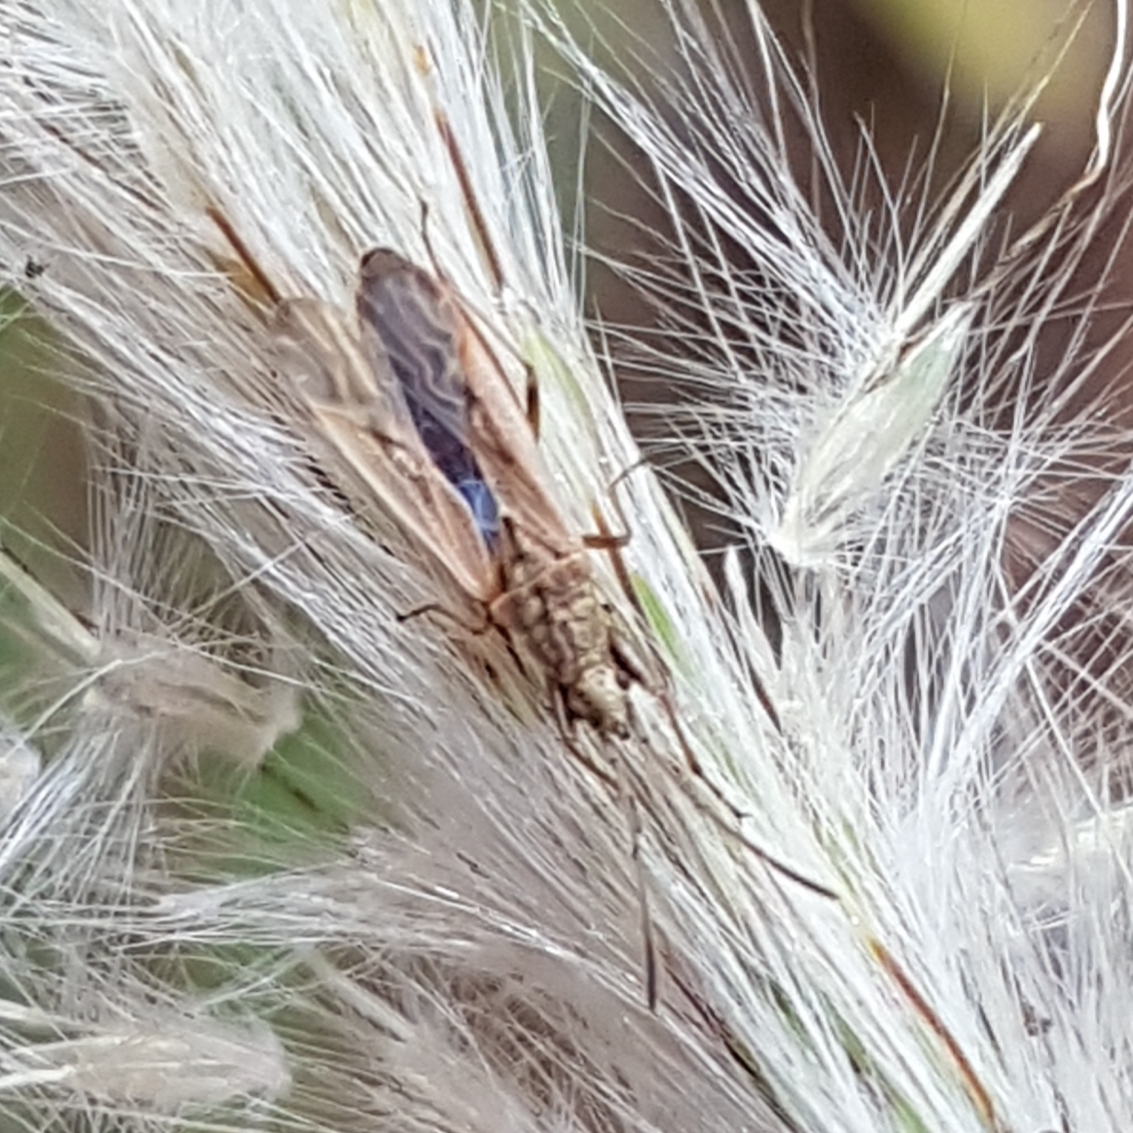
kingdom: Animalia
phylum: Arthropoda
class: Insecta
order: Hemiptera
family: Rhyparochromidae
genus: Paromius
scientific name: Paromius gracilis
